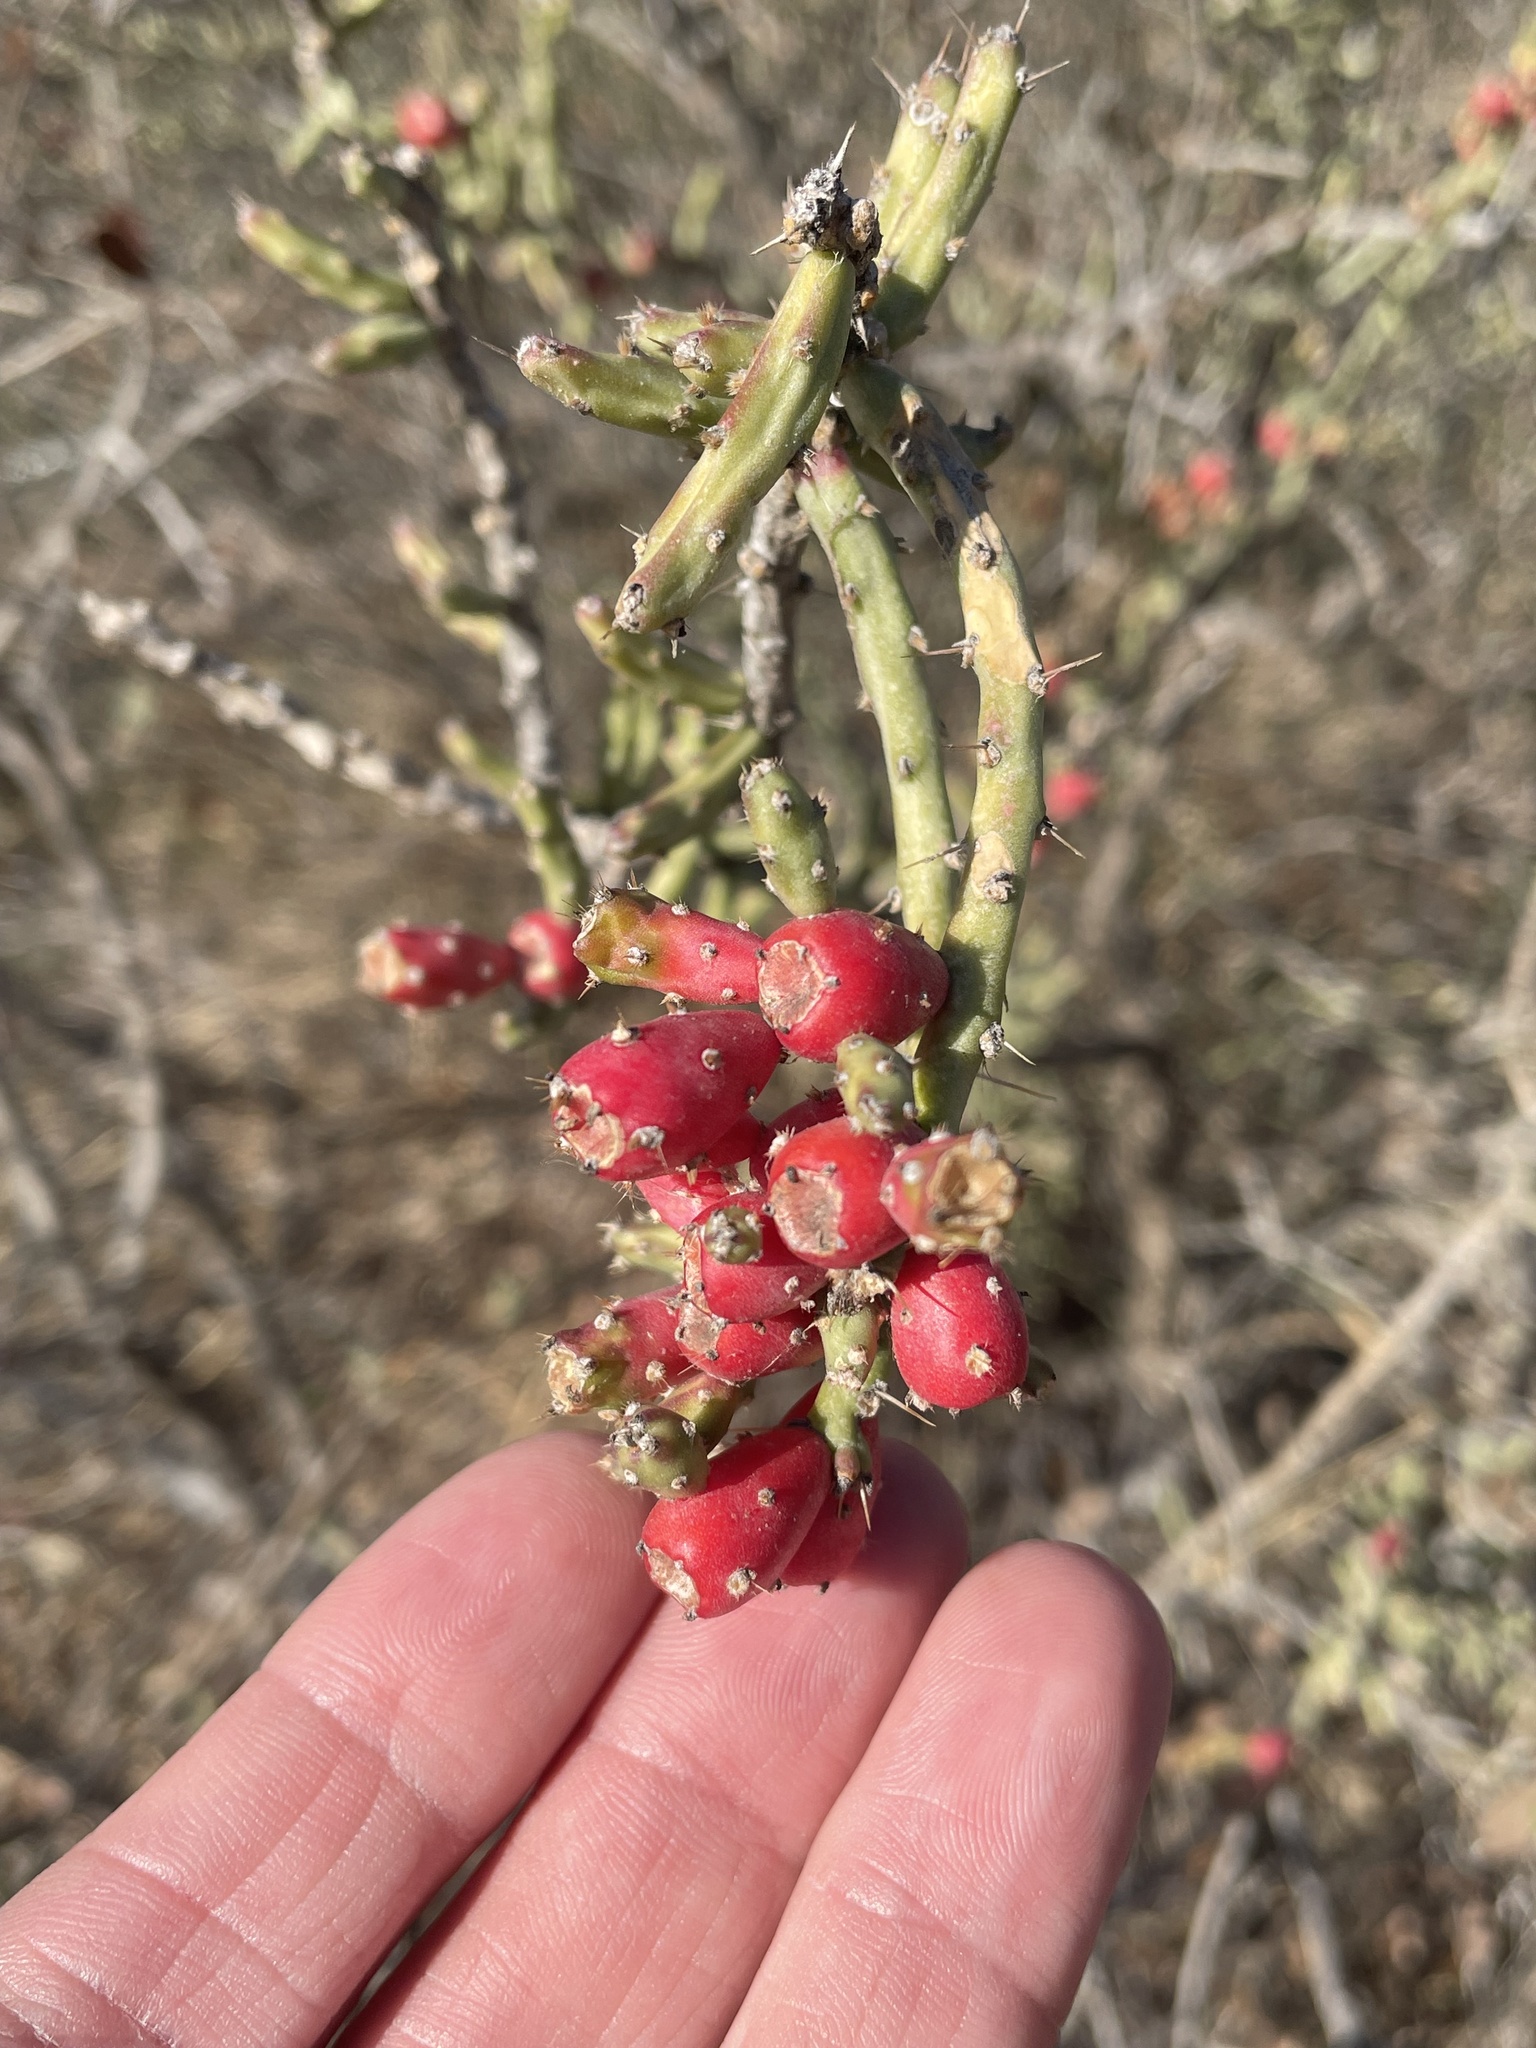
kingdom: Plantae
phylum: Tracheophyta
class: Magnoliopsida
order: Caryophyllales
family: Cactaceae
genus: Cylindropuntia
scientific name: Cylindropuntia leptocaulis
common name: Christmas cactus
